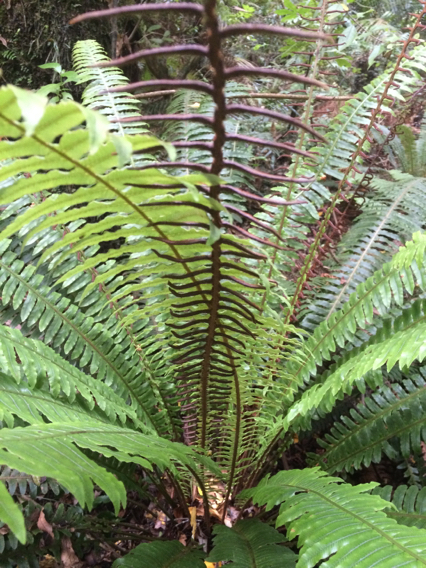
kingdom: Plantae
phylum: Tracheophyta
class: Polypodiopsida
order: Polypodiales
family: Blechnaceae
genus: Lomaria
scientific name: Lomaria discolor
